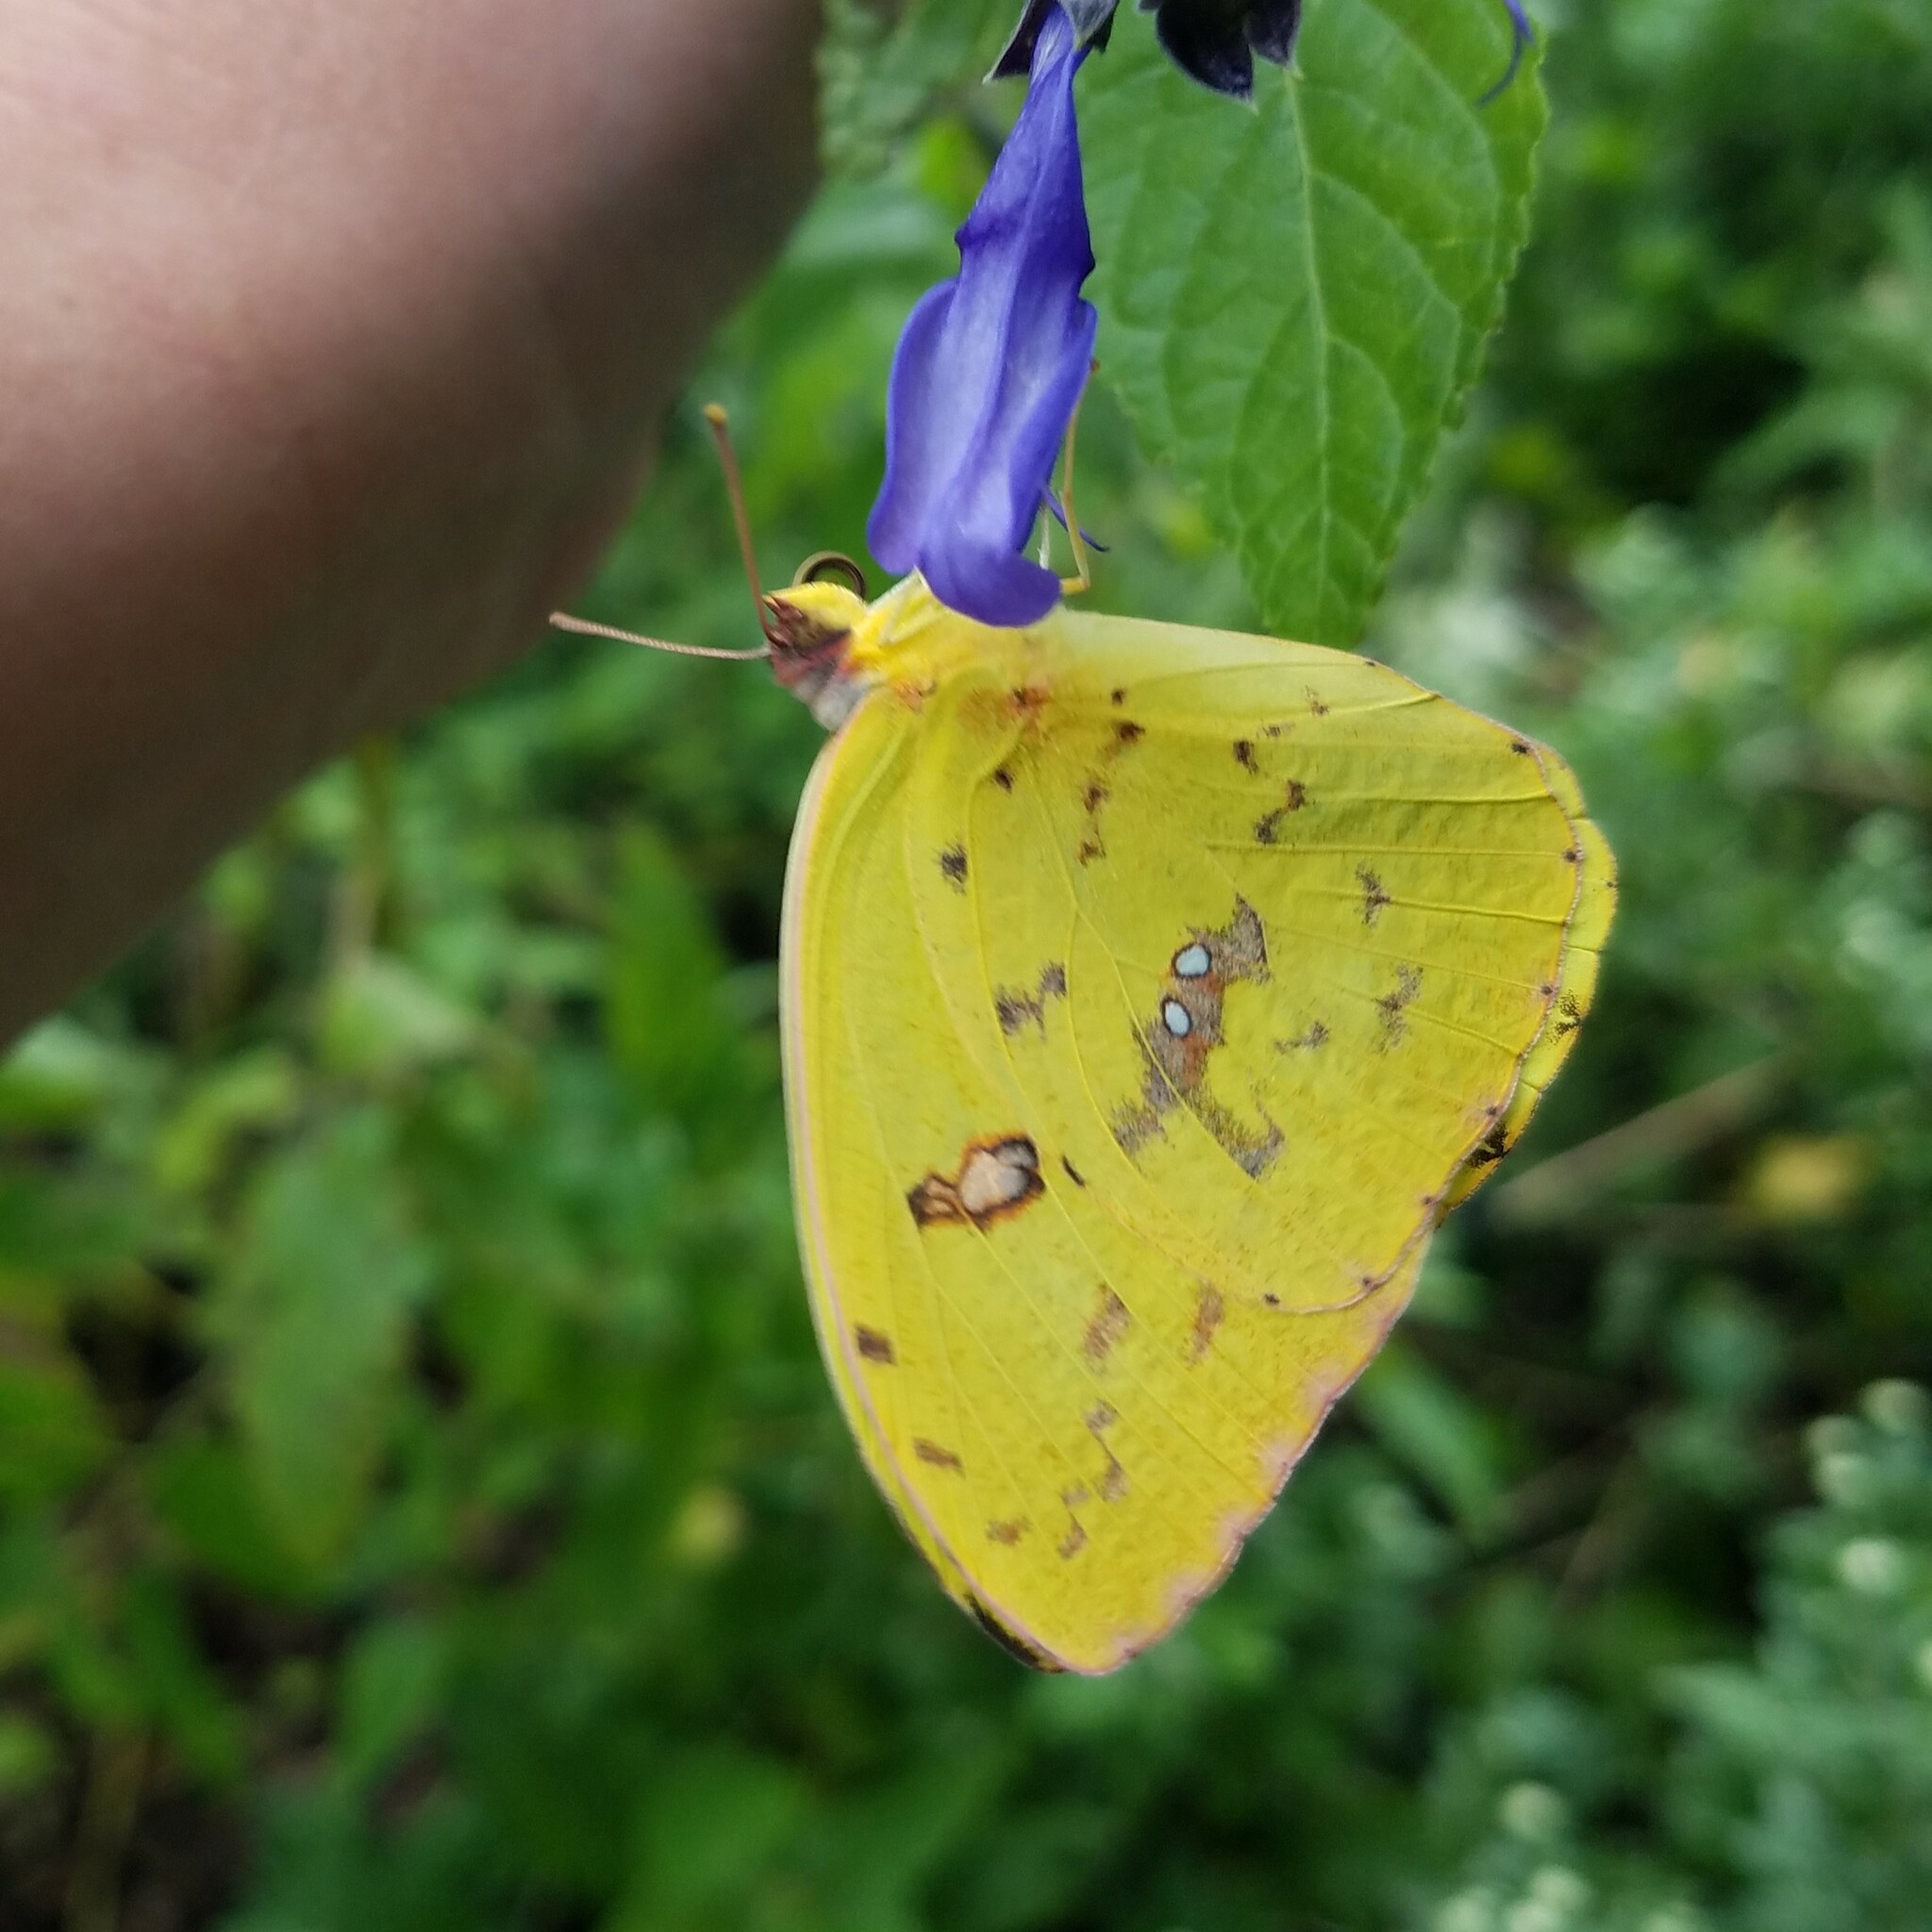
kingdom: Animalia
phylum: Arthropoda
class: Insecta
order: Lepidoptera
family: Pieridae
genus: Phoebis
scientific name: Phoebis sennae
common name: Cloudless sulphur
